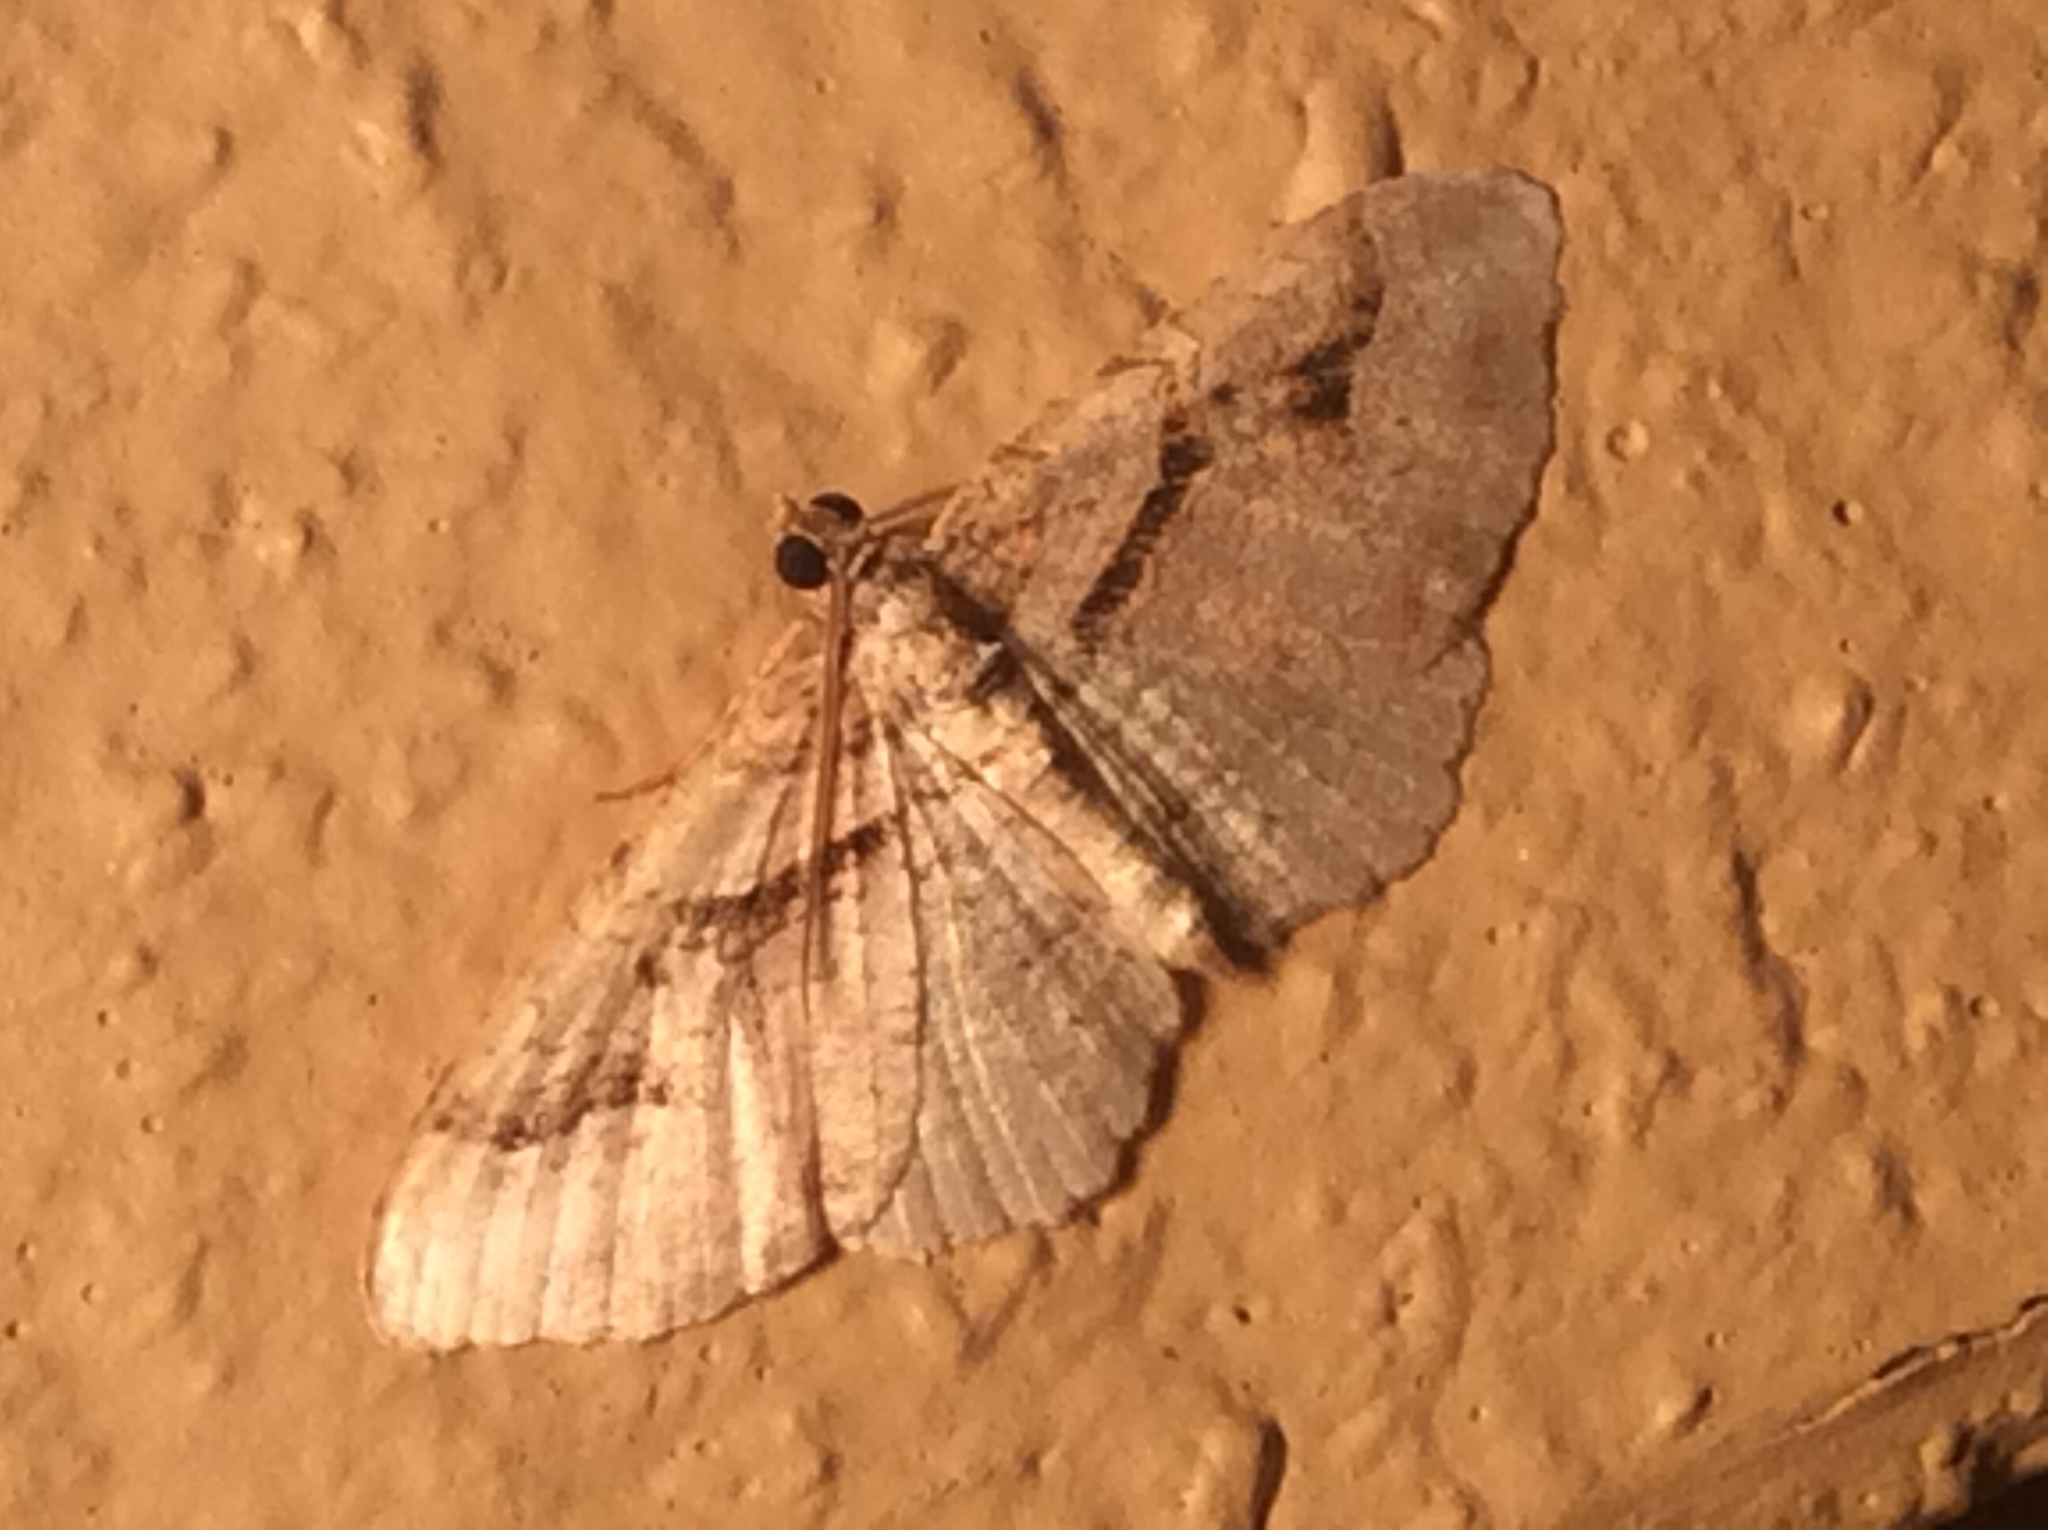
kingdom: Animalia
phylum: Arthropoda
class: Insecta
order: Lepidoptera
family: Geometridae
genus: Costaconvexa
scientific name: Costaconvexa centrostrigaria
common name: Bent-line carpet
